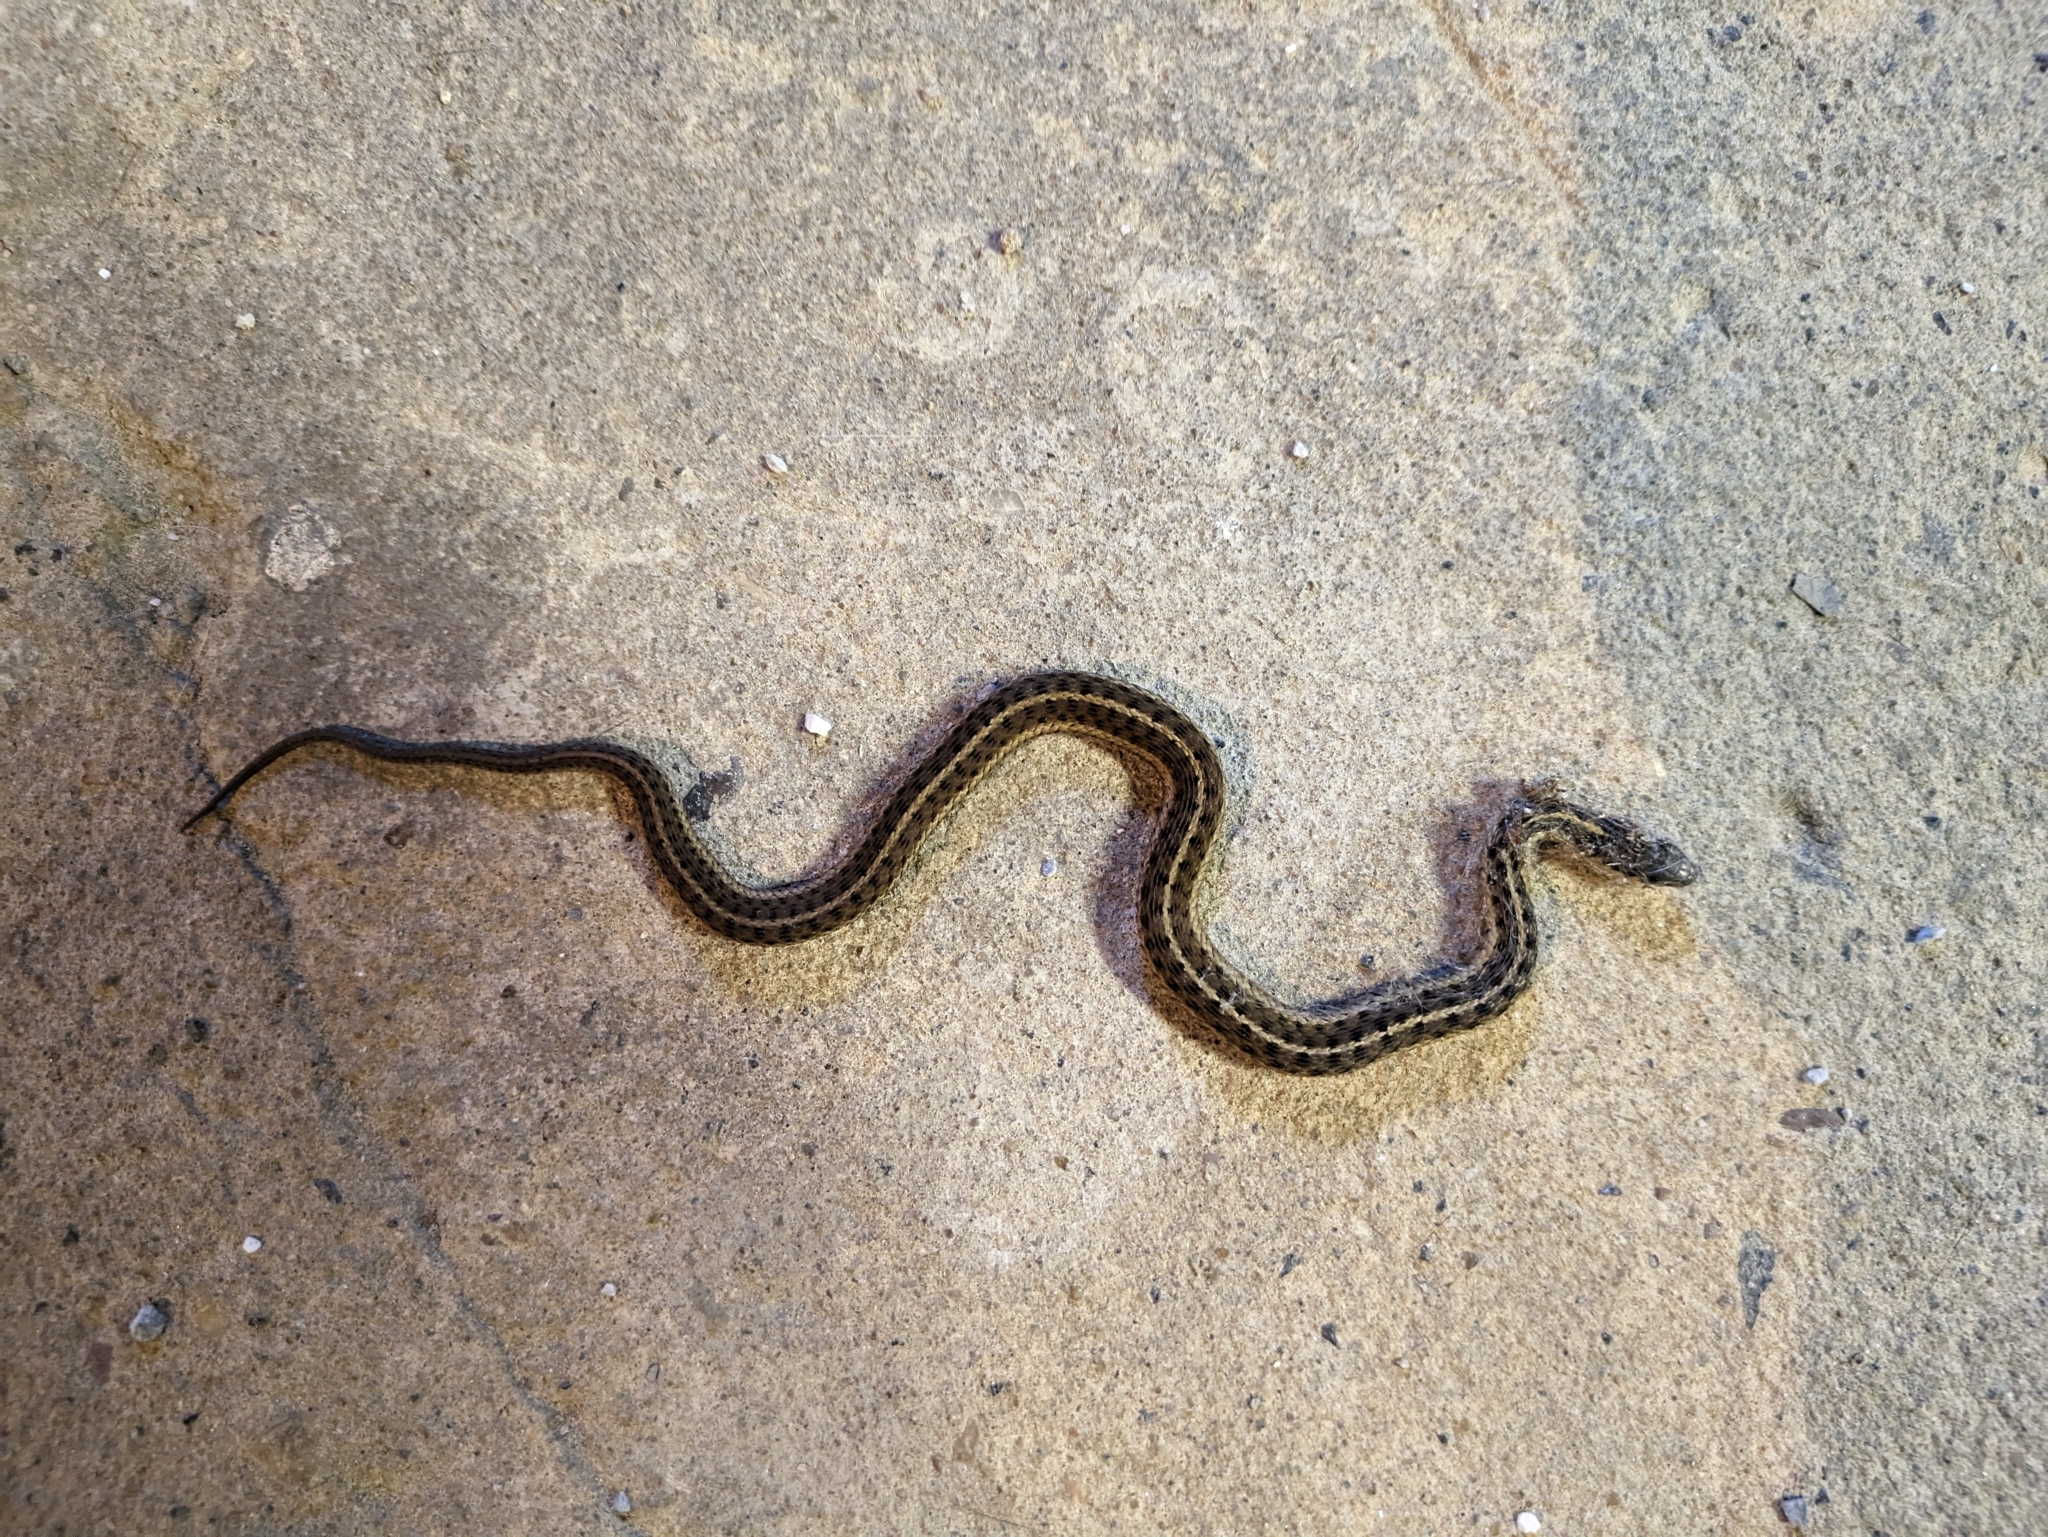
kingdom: Animalia
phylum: Chordata
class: Squamata
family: Colubridae
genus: Thamnophis
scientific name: Thamnophis sirtalis
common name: Common garter snake
